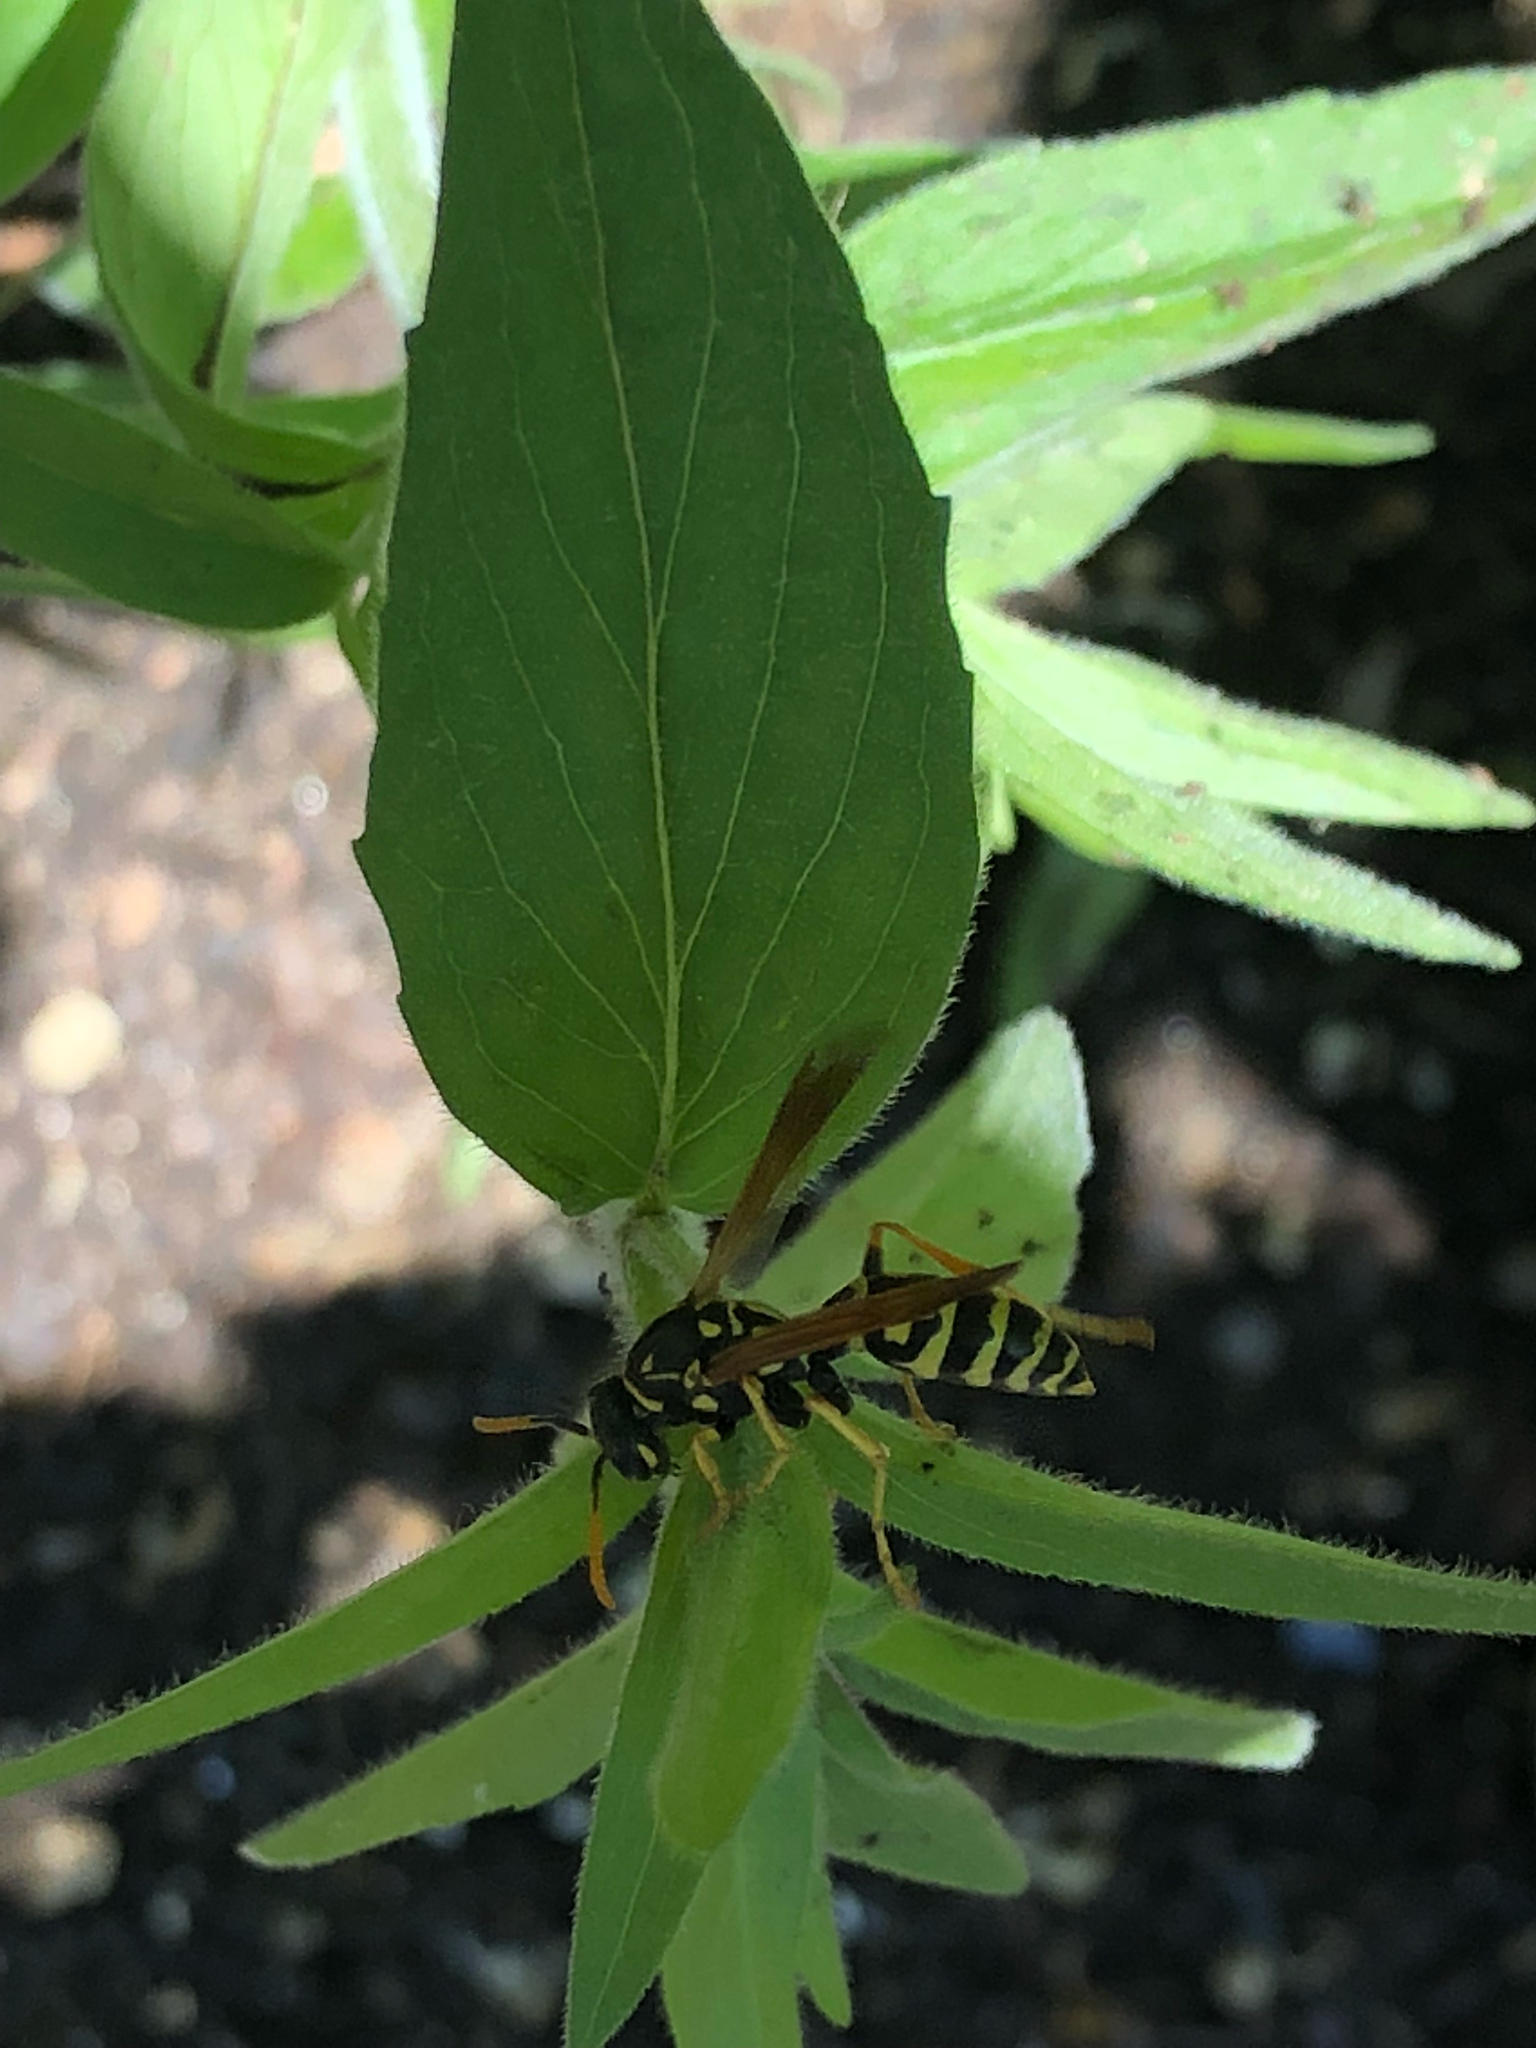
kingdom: Animalia
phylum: Arthropoda
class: Insecta
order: Hymenoptera
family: Eumenidae
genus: Polistes
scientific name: Polistes dominula
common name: Paper wasp
